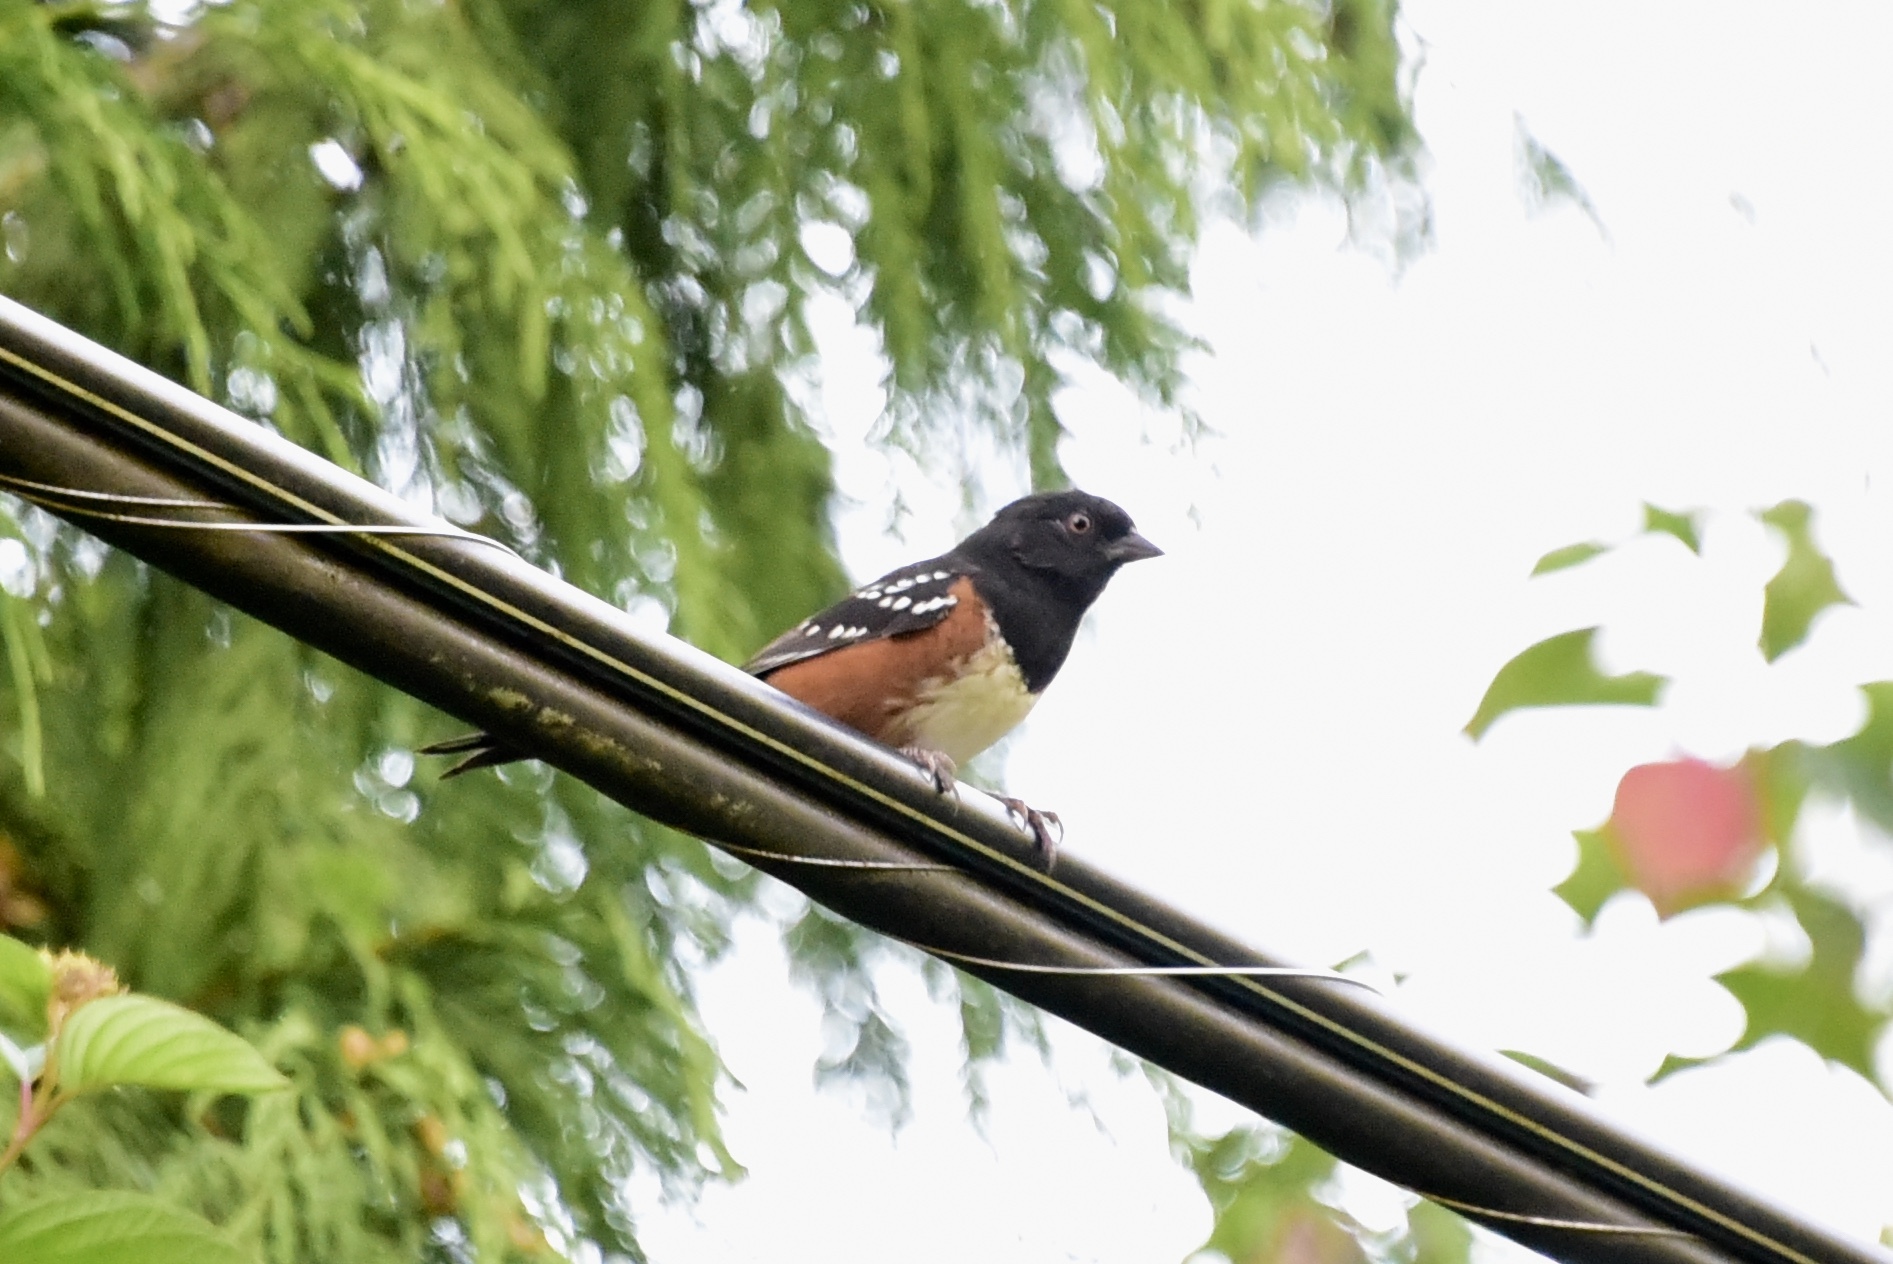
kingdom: Animalia
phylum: Chordata
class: Aves
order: Passeriformes
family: Passerellidae
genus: Pipilo
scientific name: Pipilo maculatus
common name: Spotted towhee
